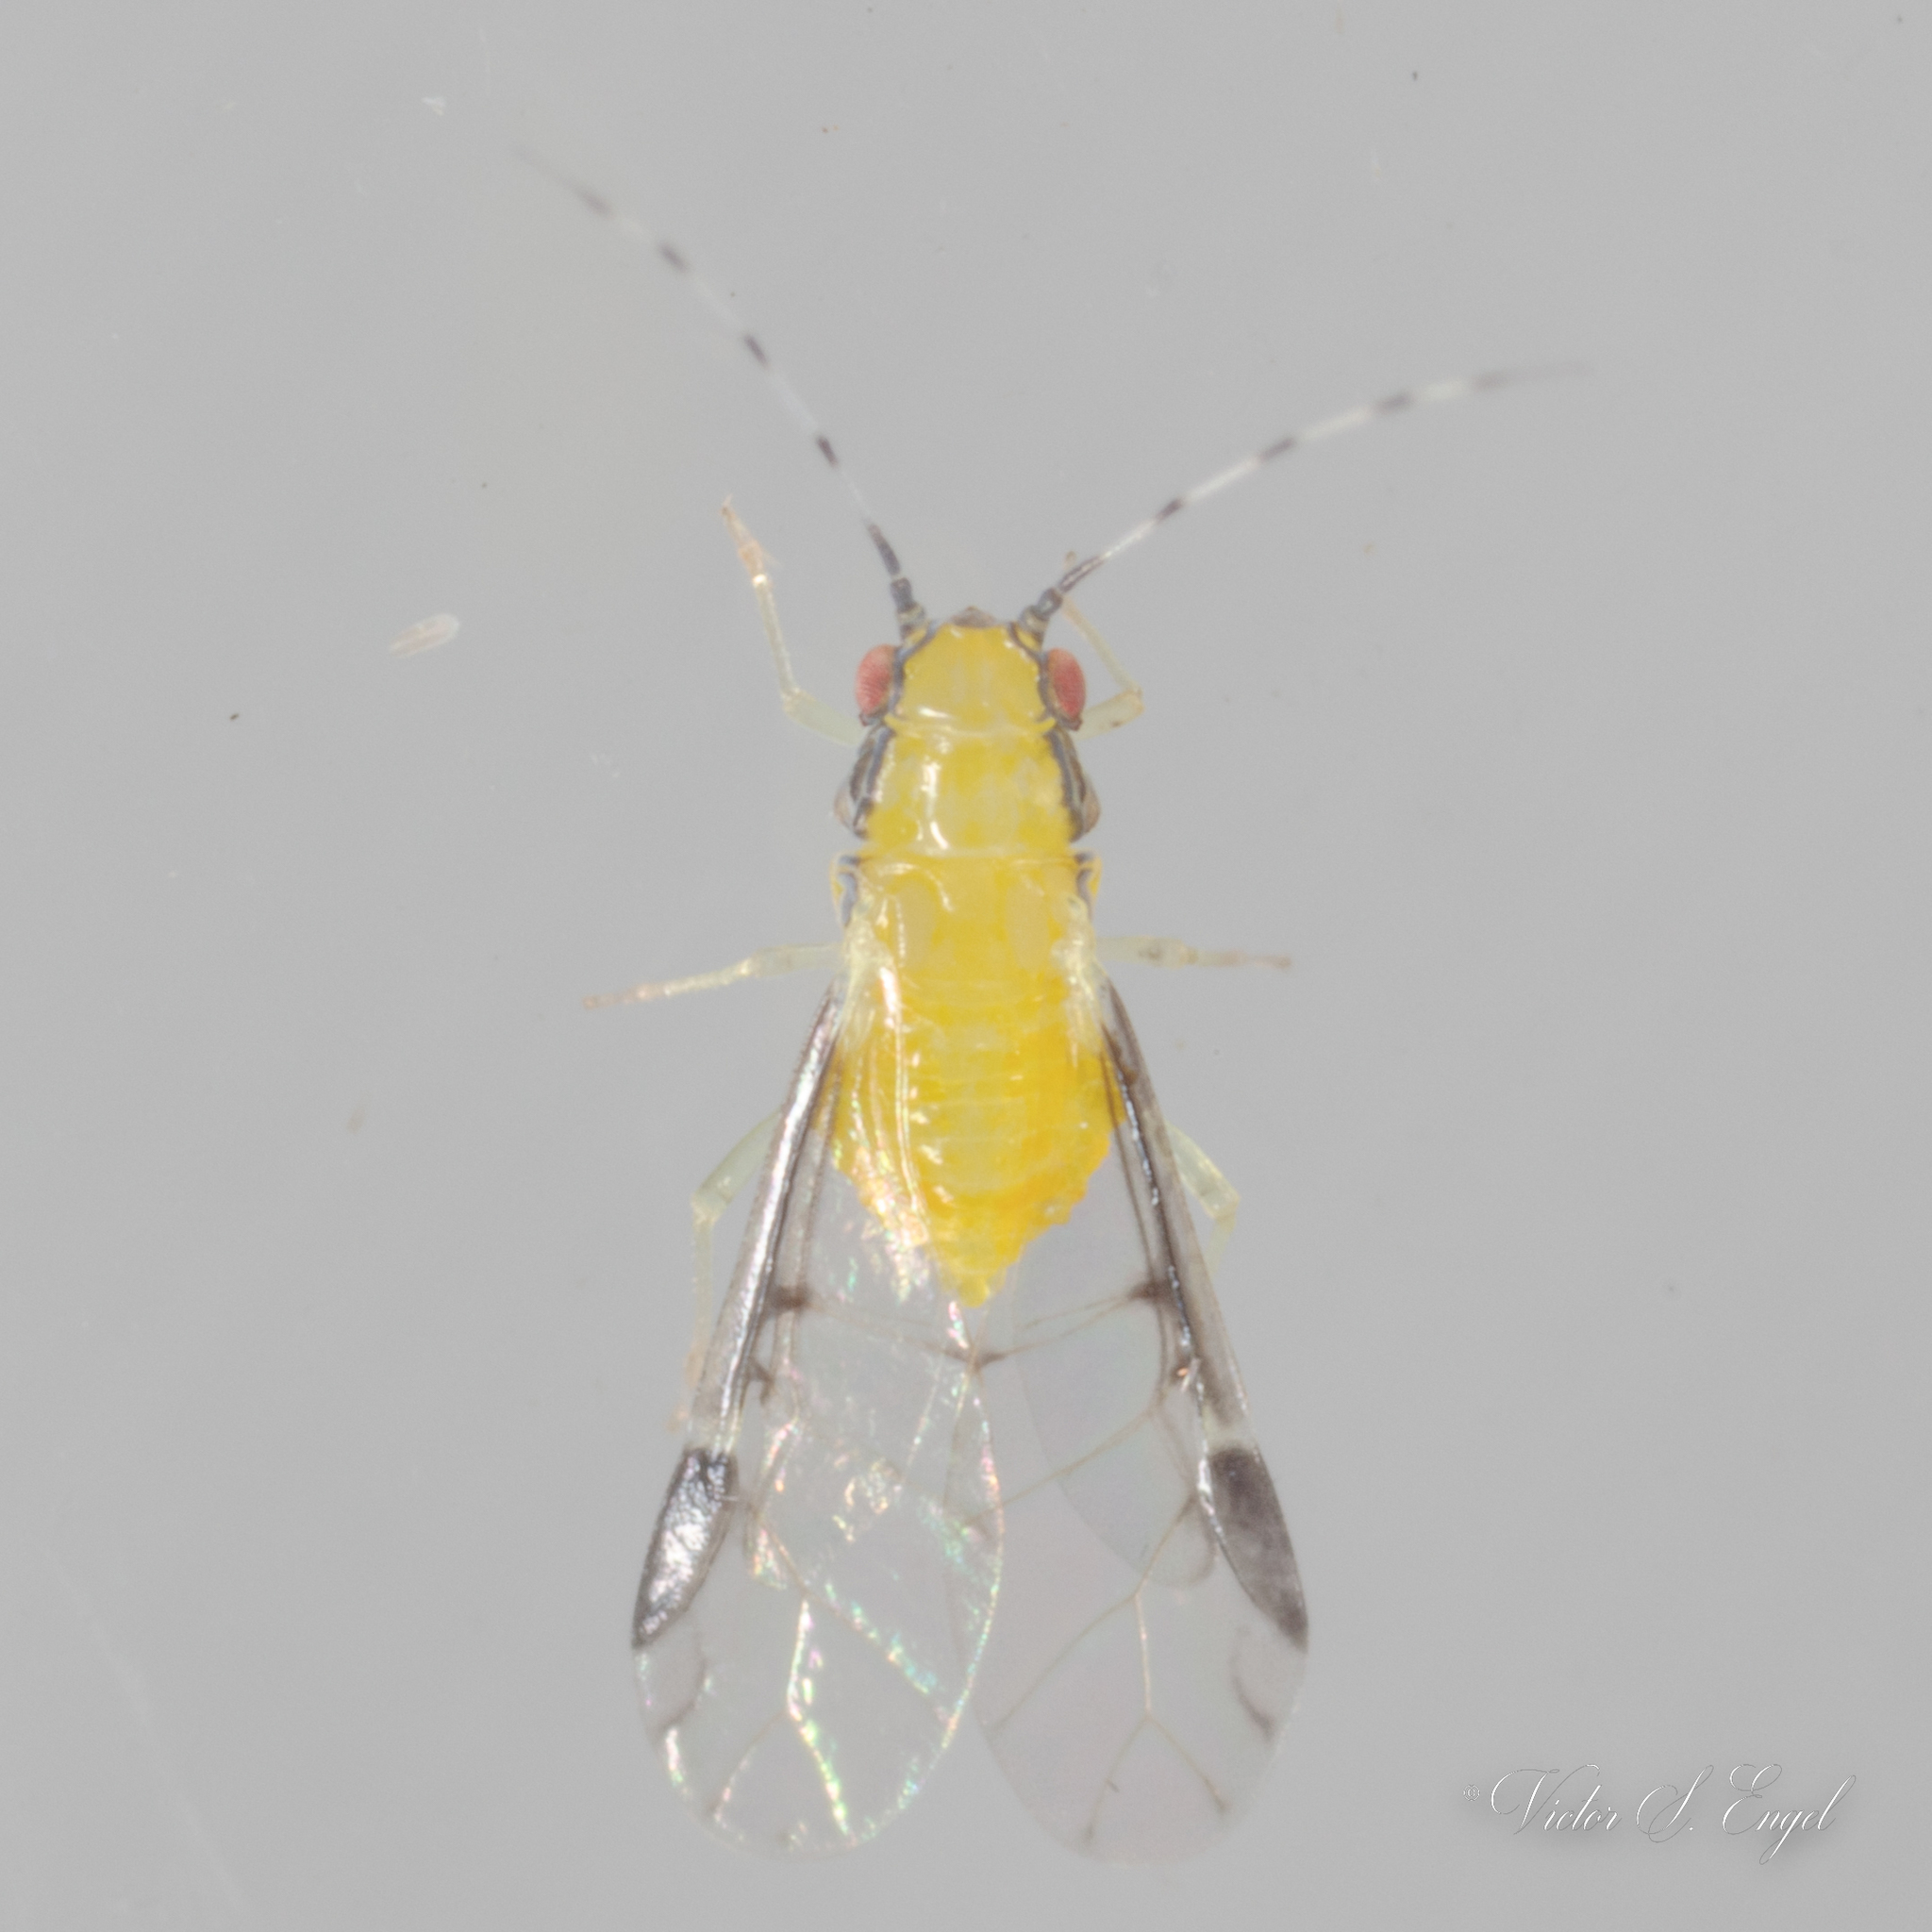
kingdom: Animalia
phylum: Arthropoda
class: Insecta
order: Hemiptera
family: Aphididae
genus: Monellia
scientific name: Monellia caryella
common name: Blackmargined aphid
